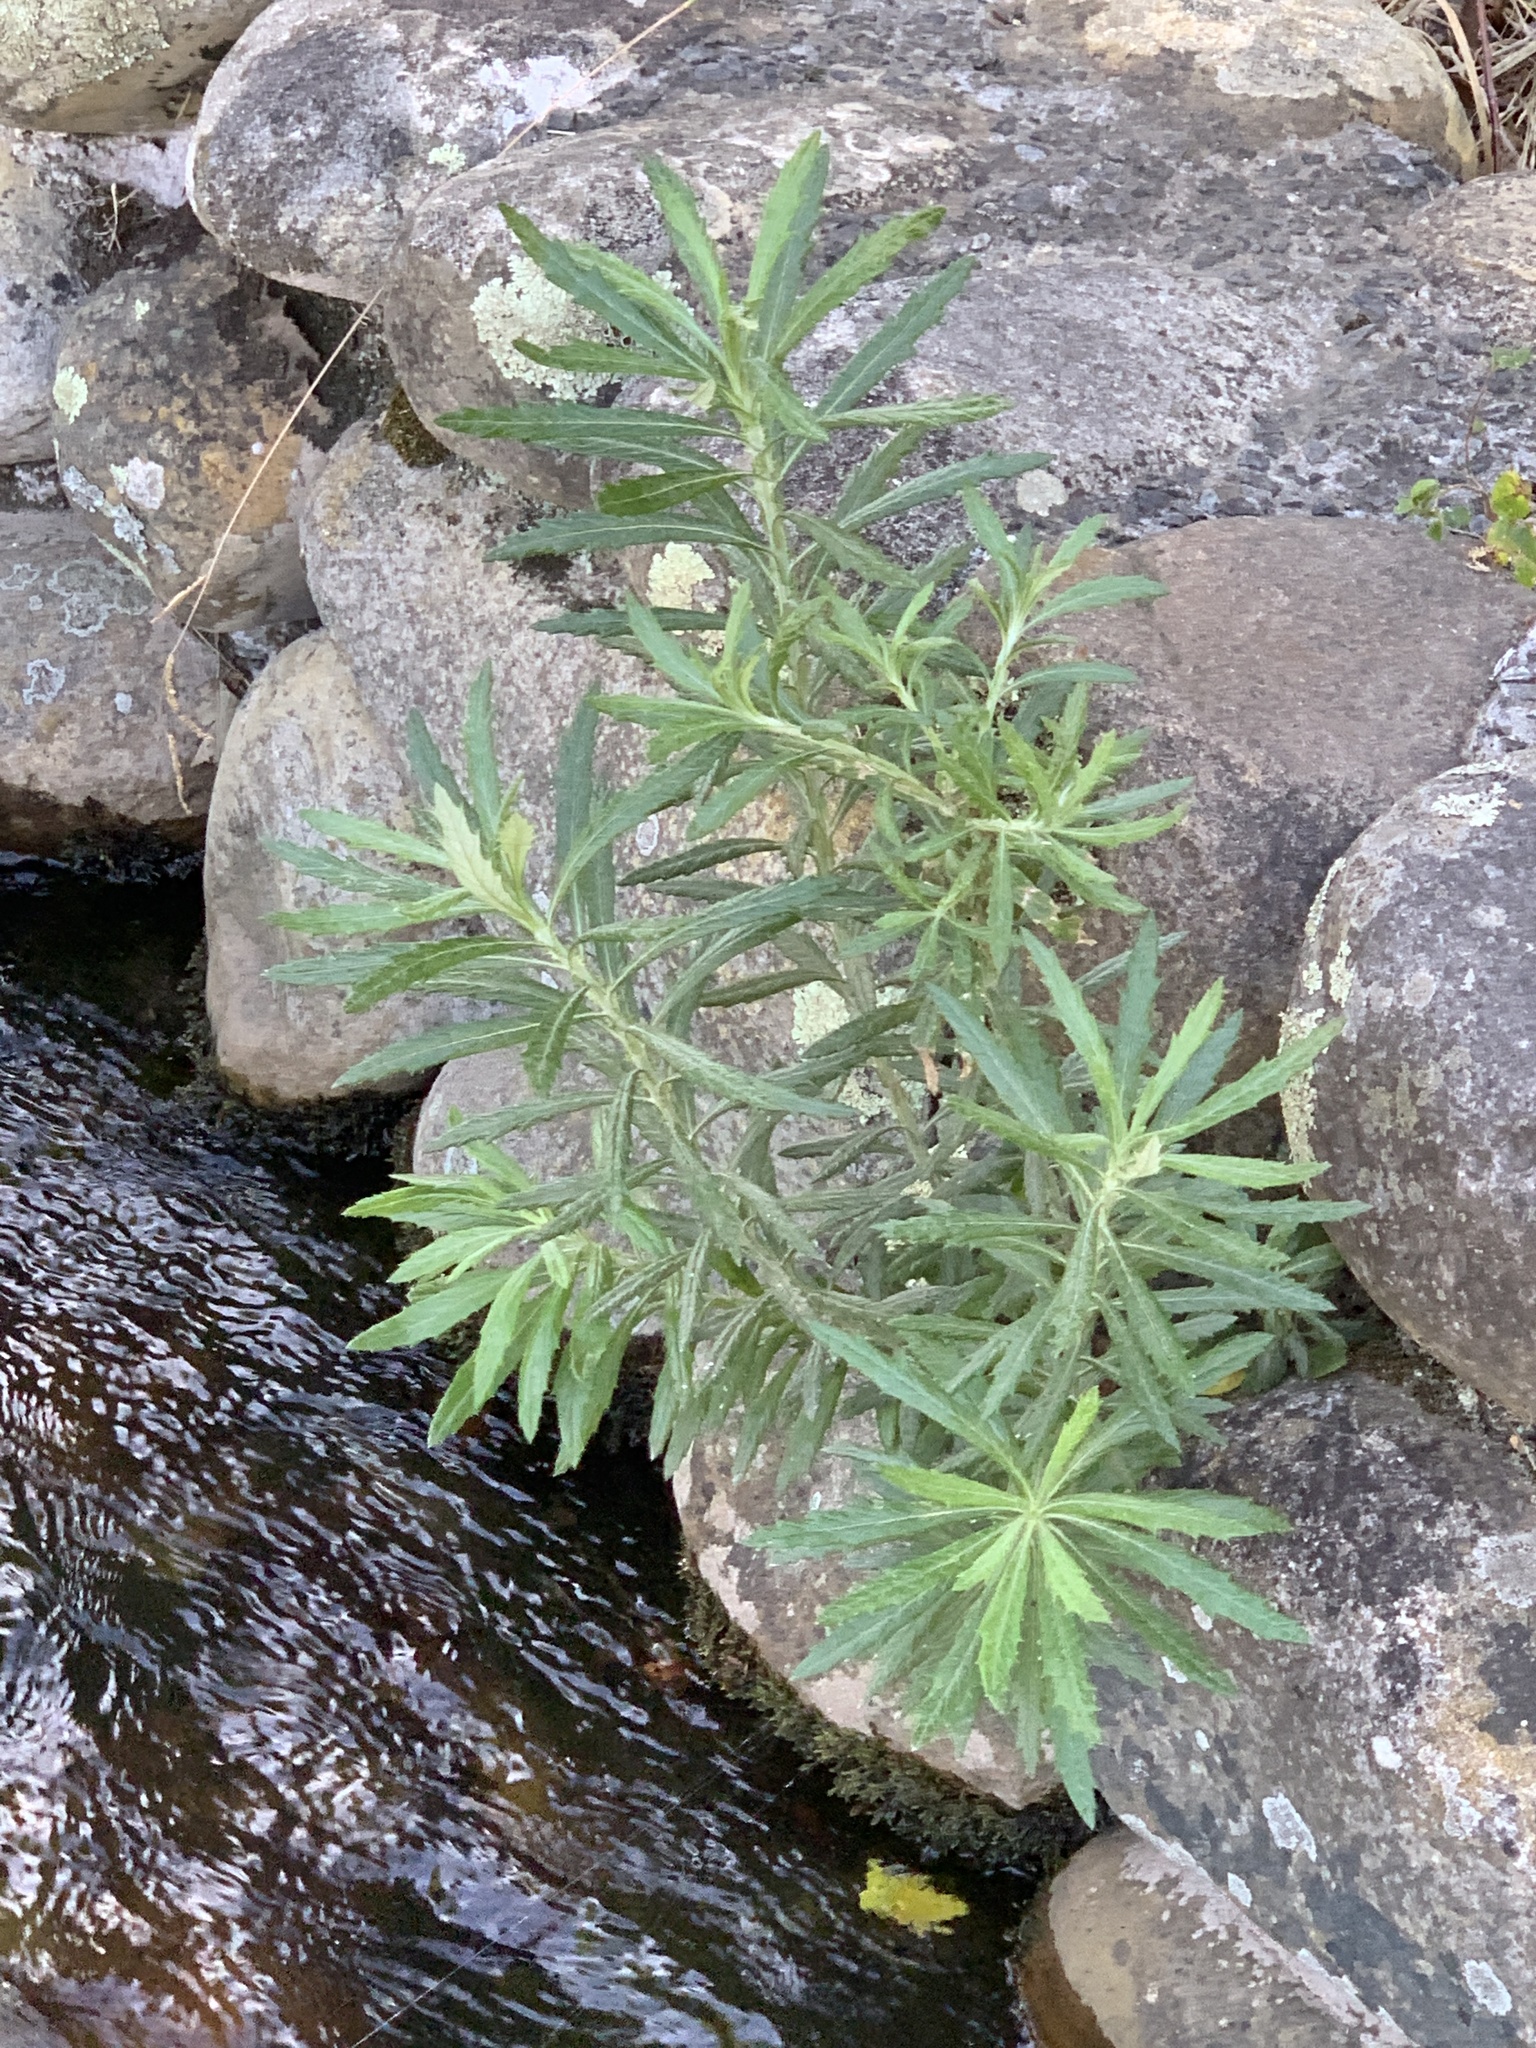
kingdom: Plantae
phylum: Tracheophyta
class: Magnoliopsida
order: Asterales
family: Asteraceae
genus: Senecio
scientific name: Senecio pterophorus
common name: Shoddy ragwort
